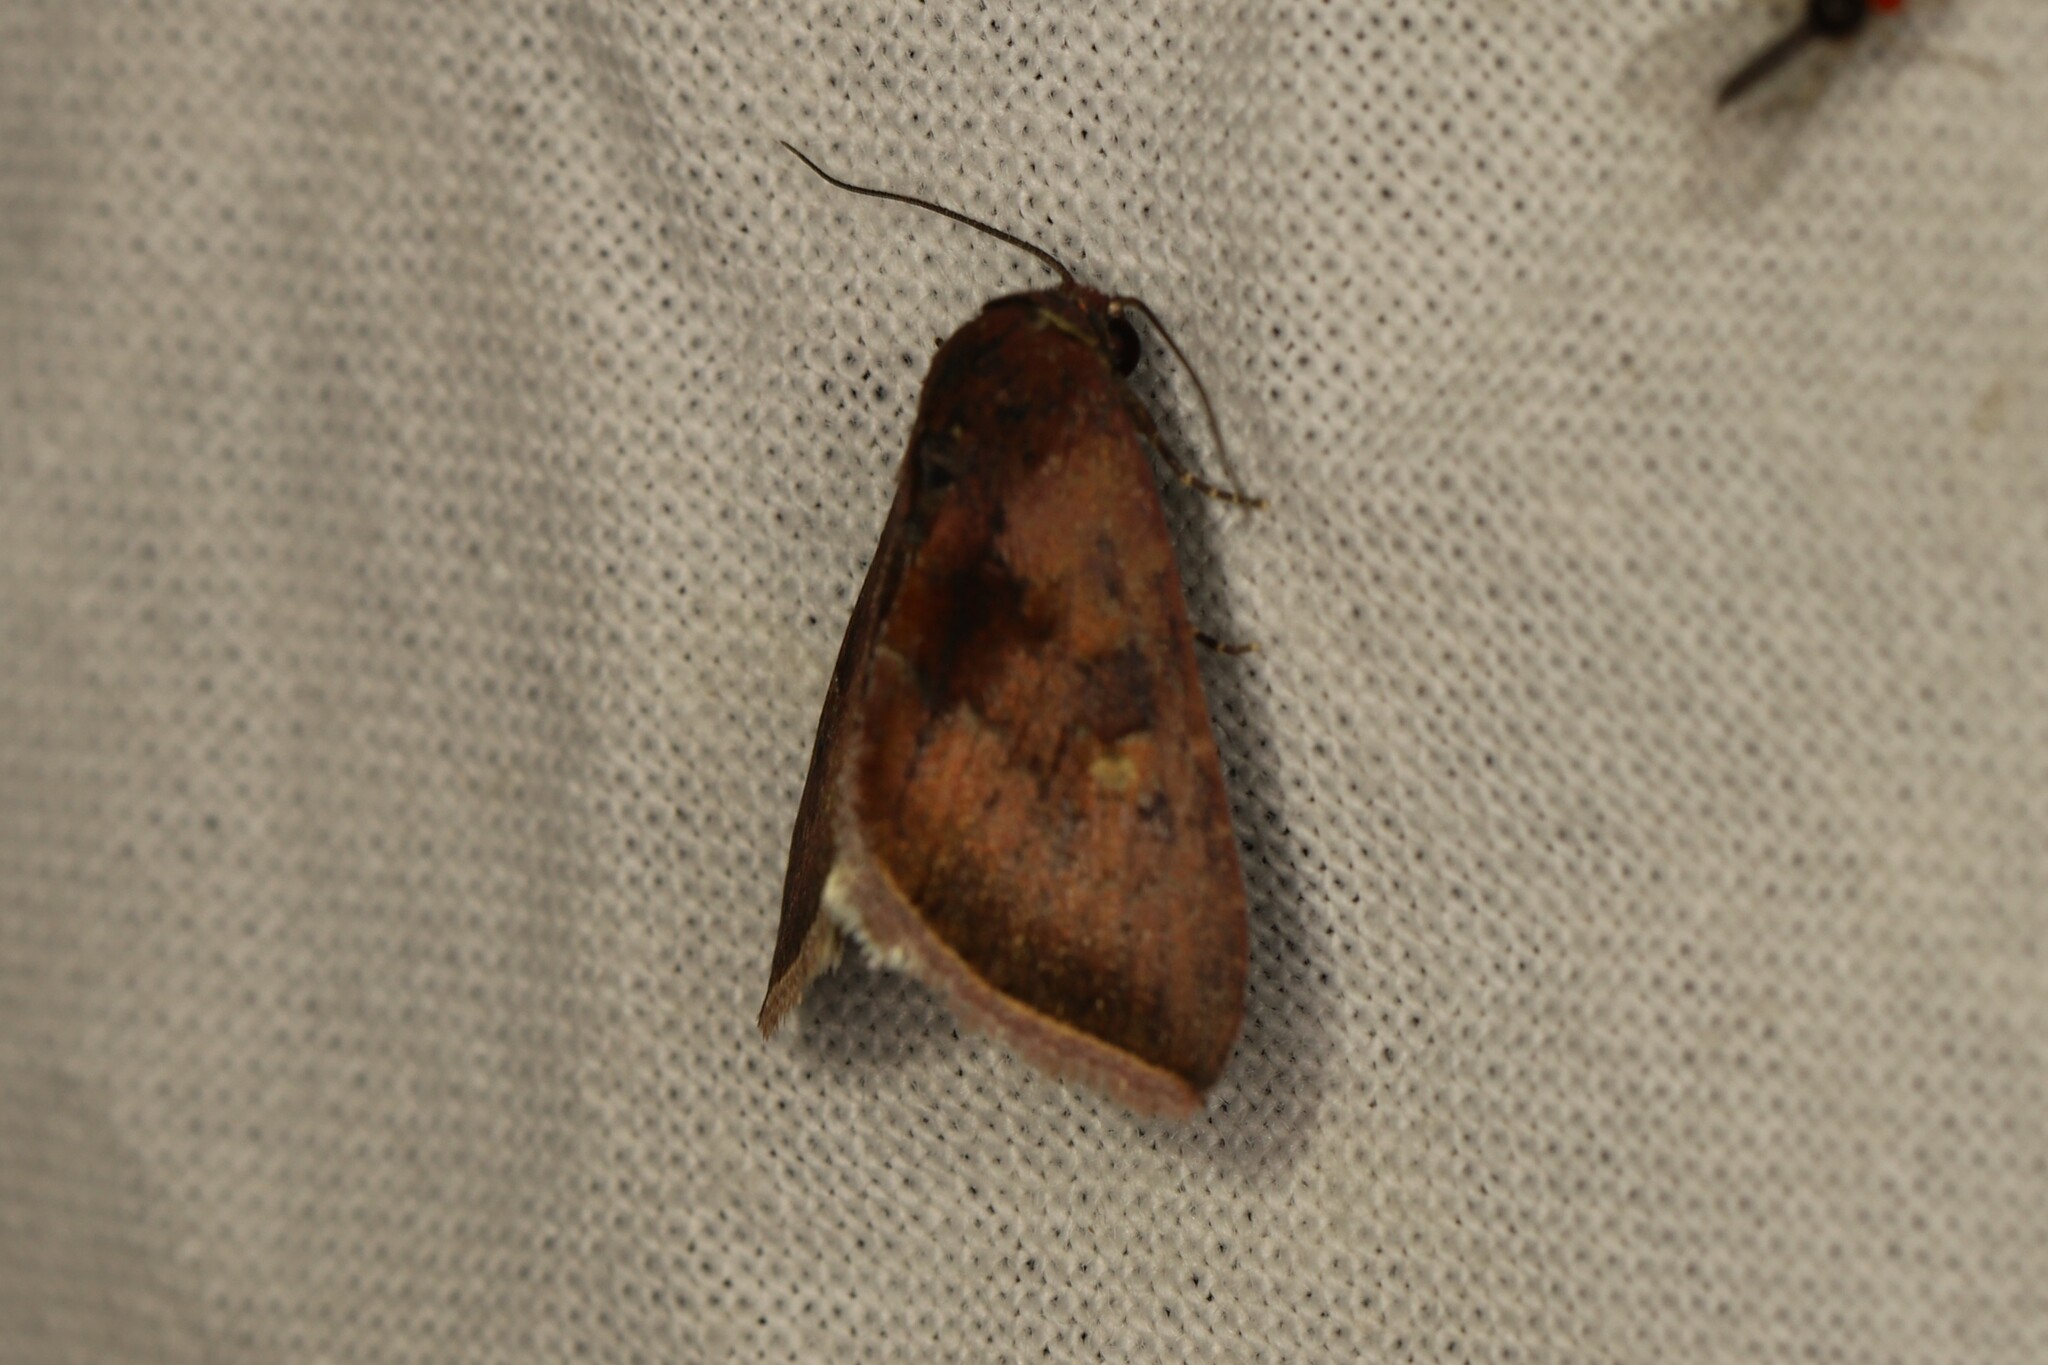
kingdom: Animalia
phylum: Arthropoda
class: Insecta
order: Lepidoptera
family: Noctuidae
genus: Micrathetis
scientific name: Micrathetis canifimbria
